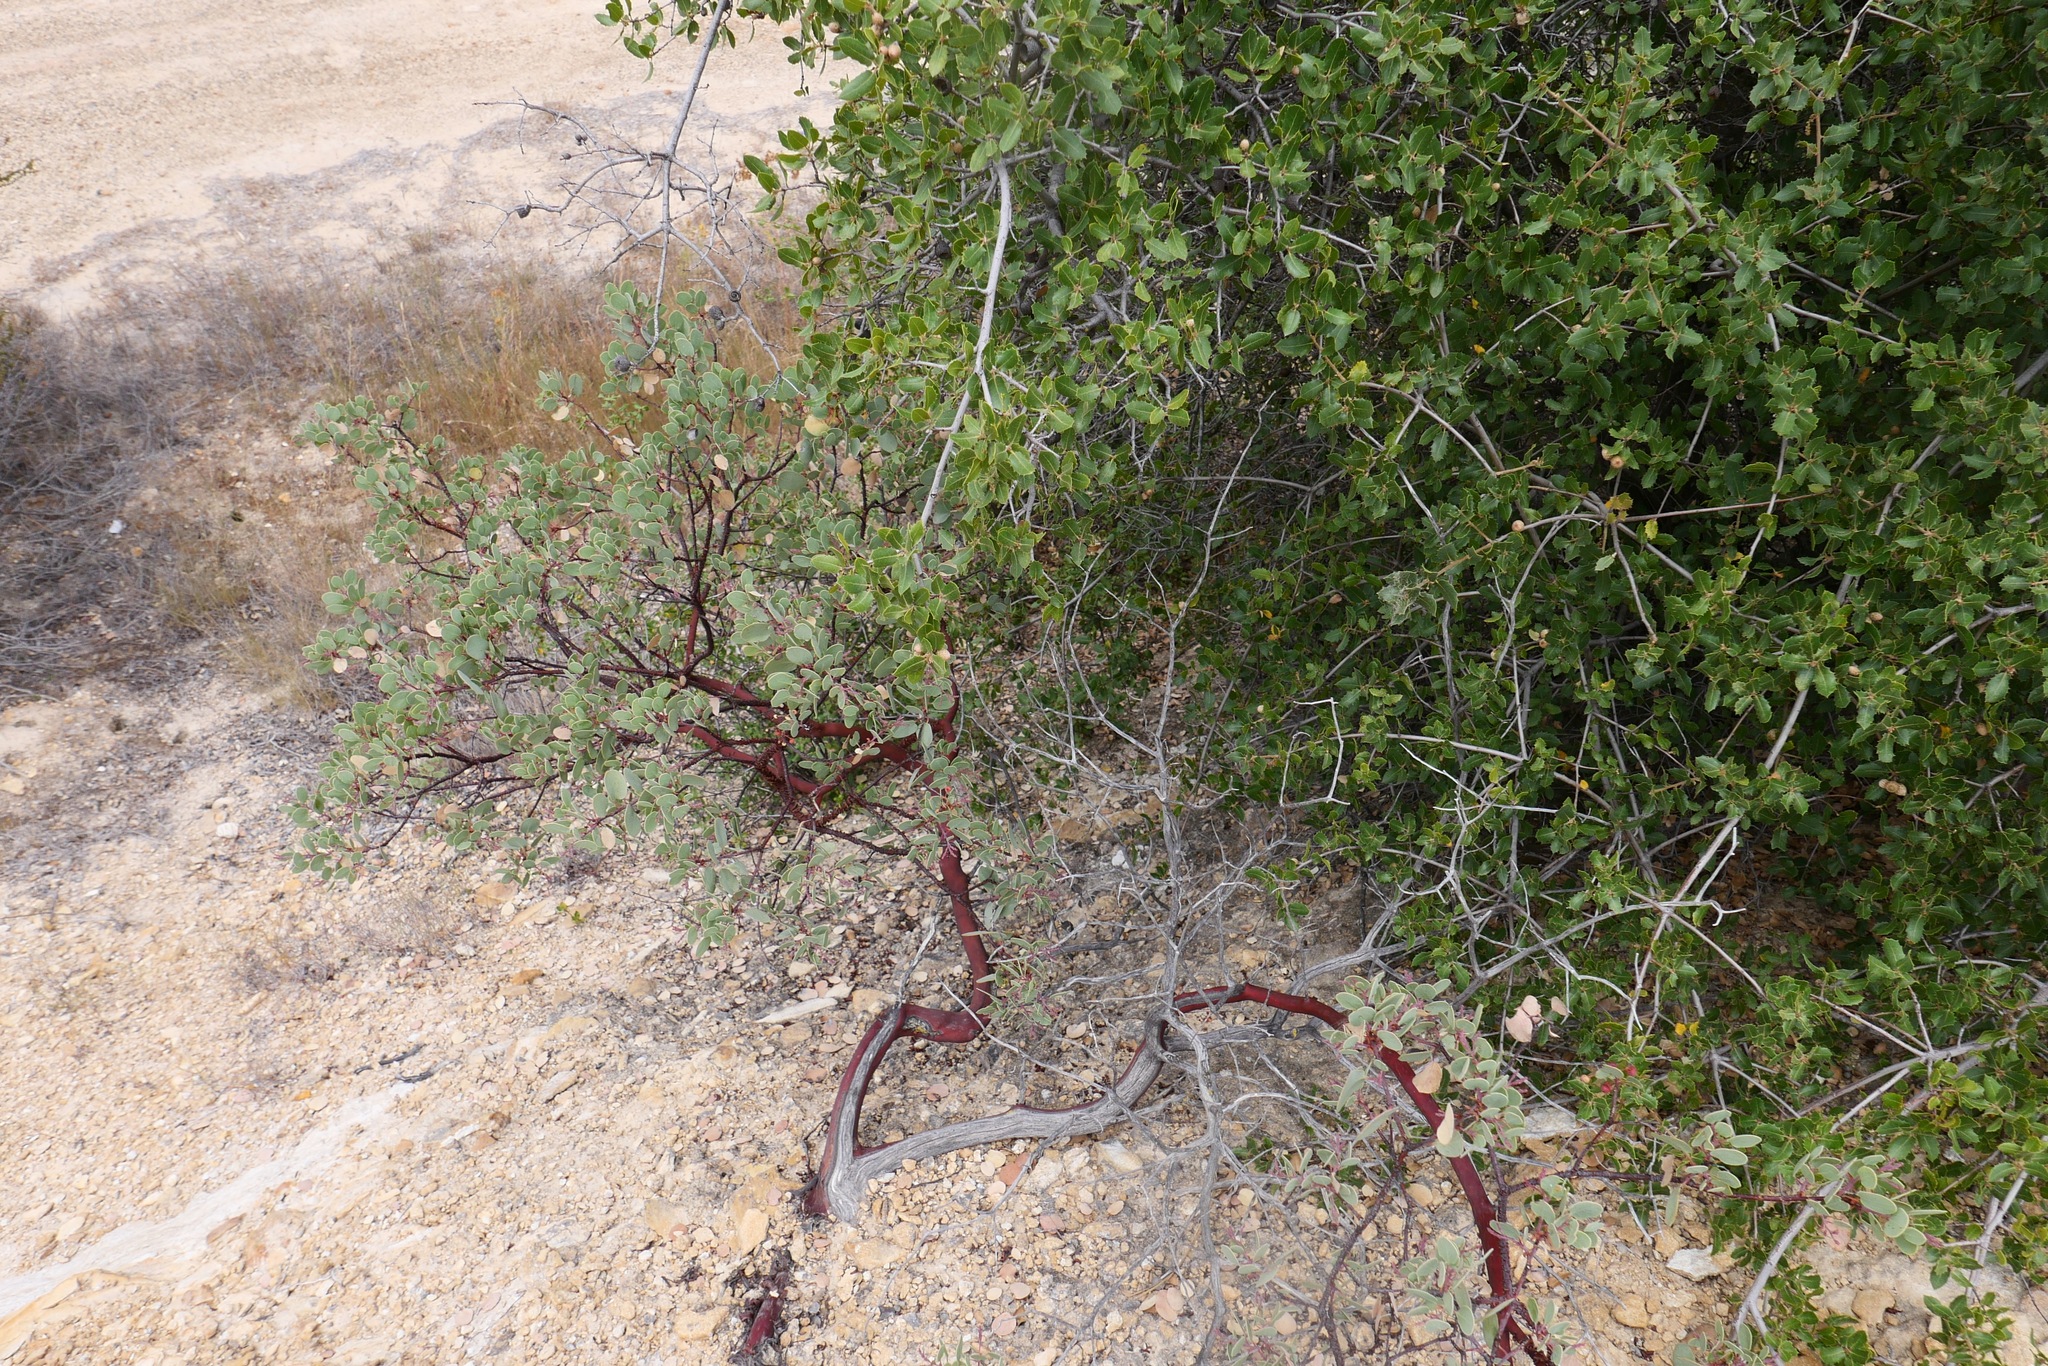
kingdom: Plantae
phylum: Tracheophyta
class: Magnoliopsida
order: Ericales
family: Ericaceae
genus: Arctostaphylos
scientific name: Arctostaphylos viscida
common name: White-leaf manzanita
